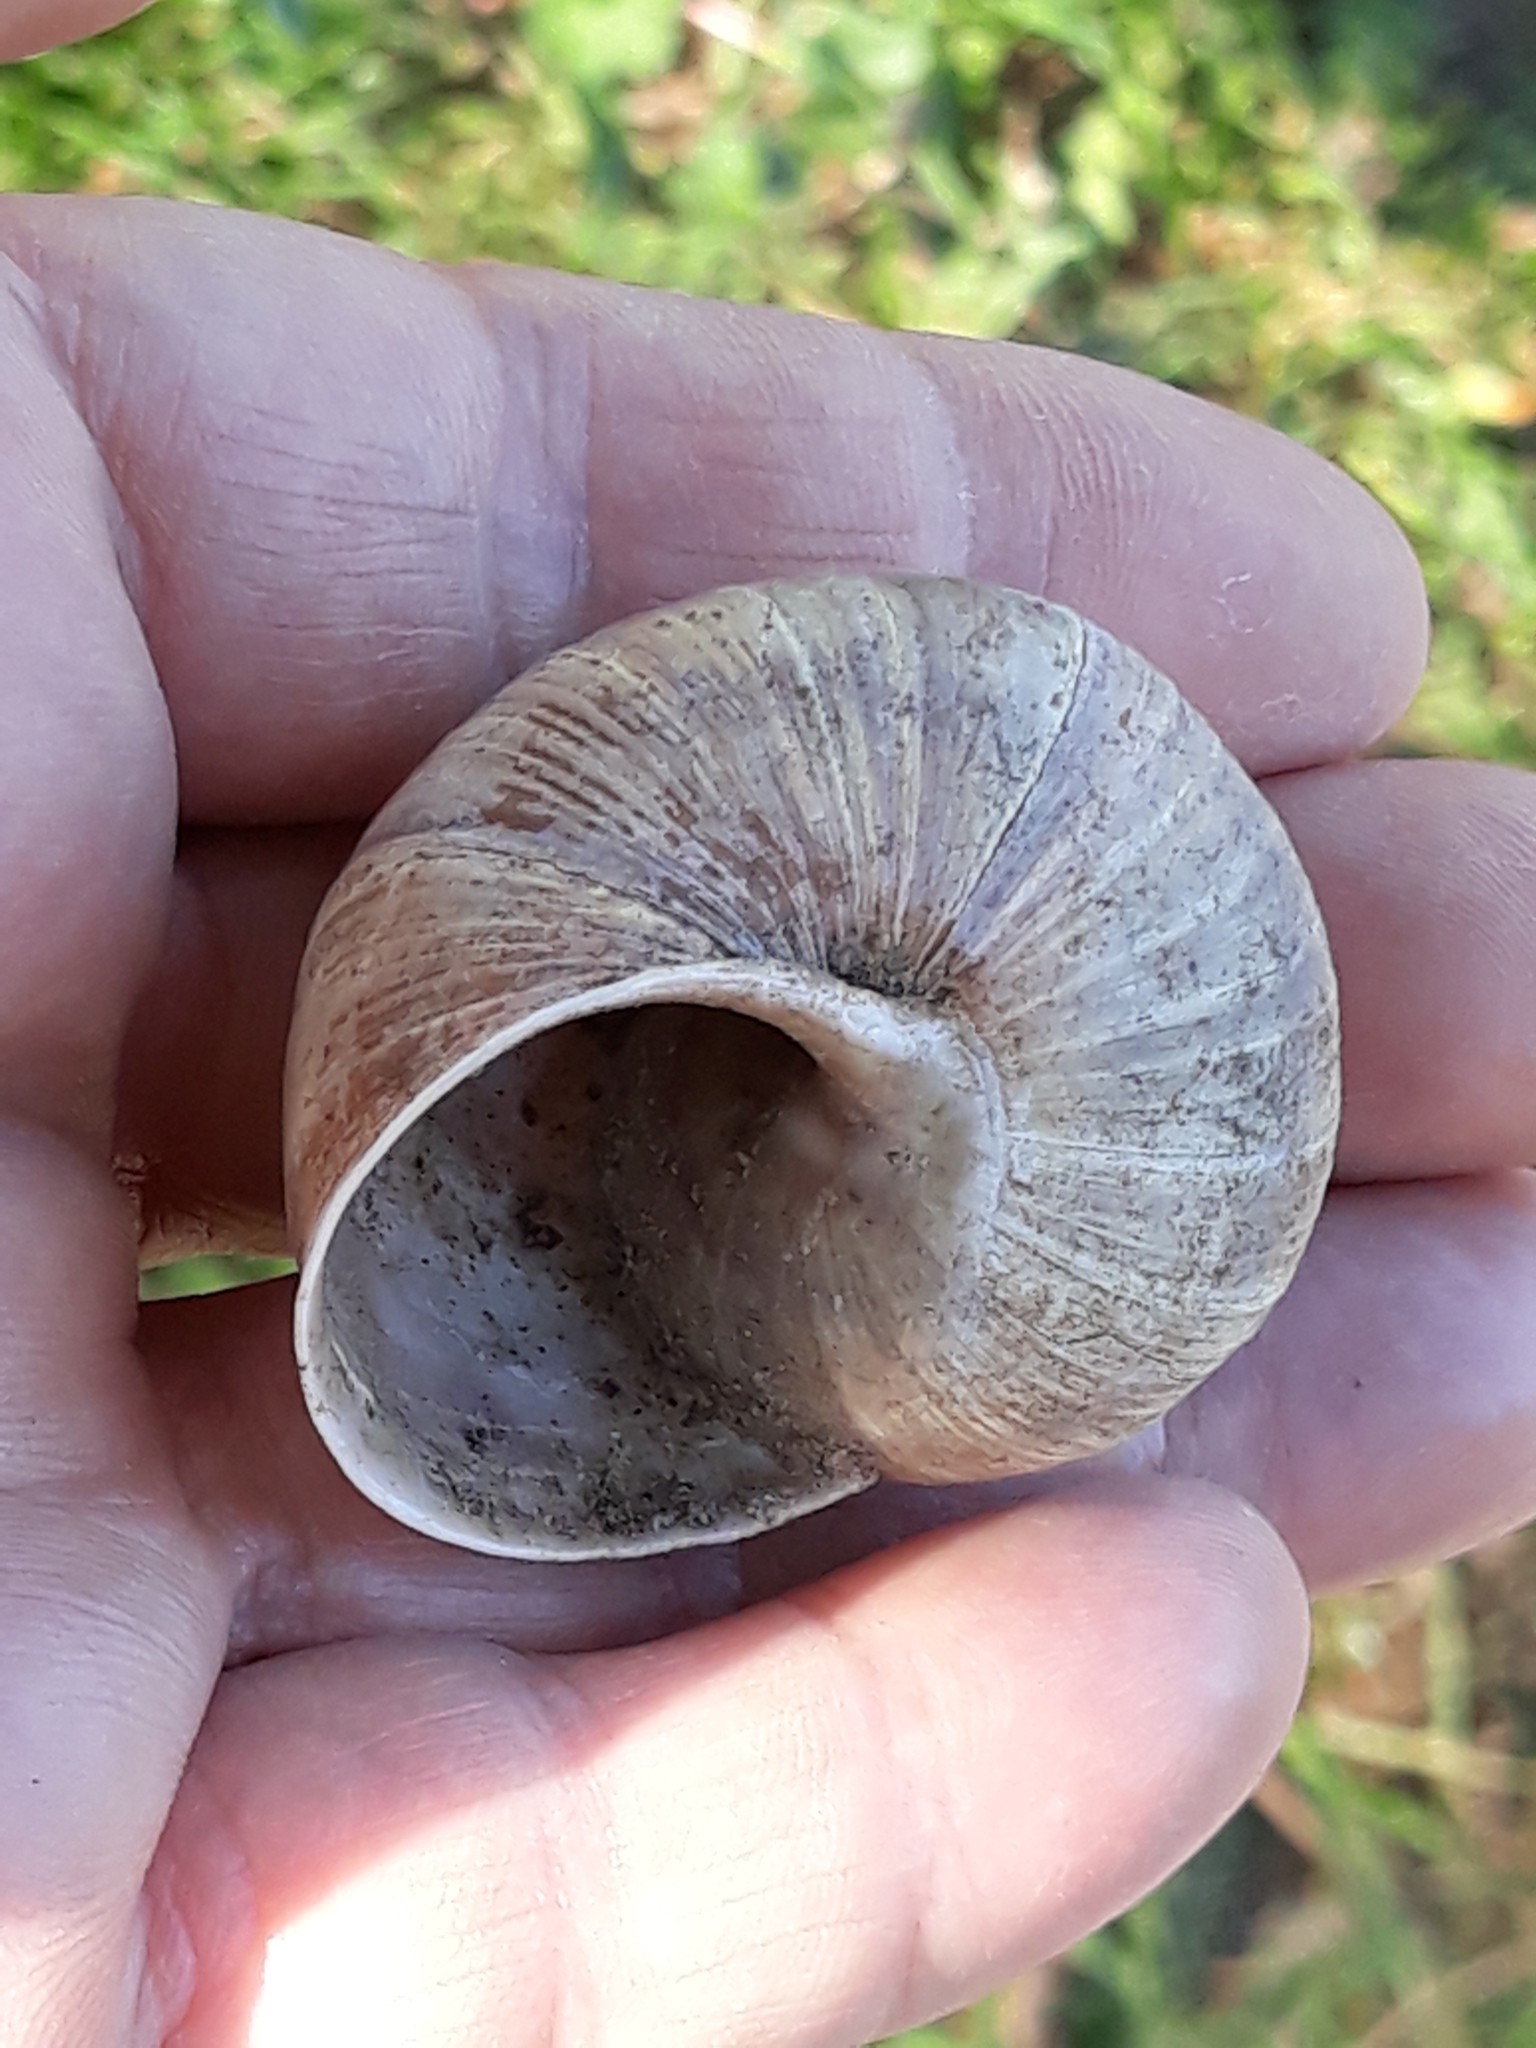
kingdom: Animalia
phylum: Mollusca
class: Gastropoda
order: Stylommatophora
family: Helicidae
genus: Helix
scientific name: Helix pomatia
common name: Roman snail
